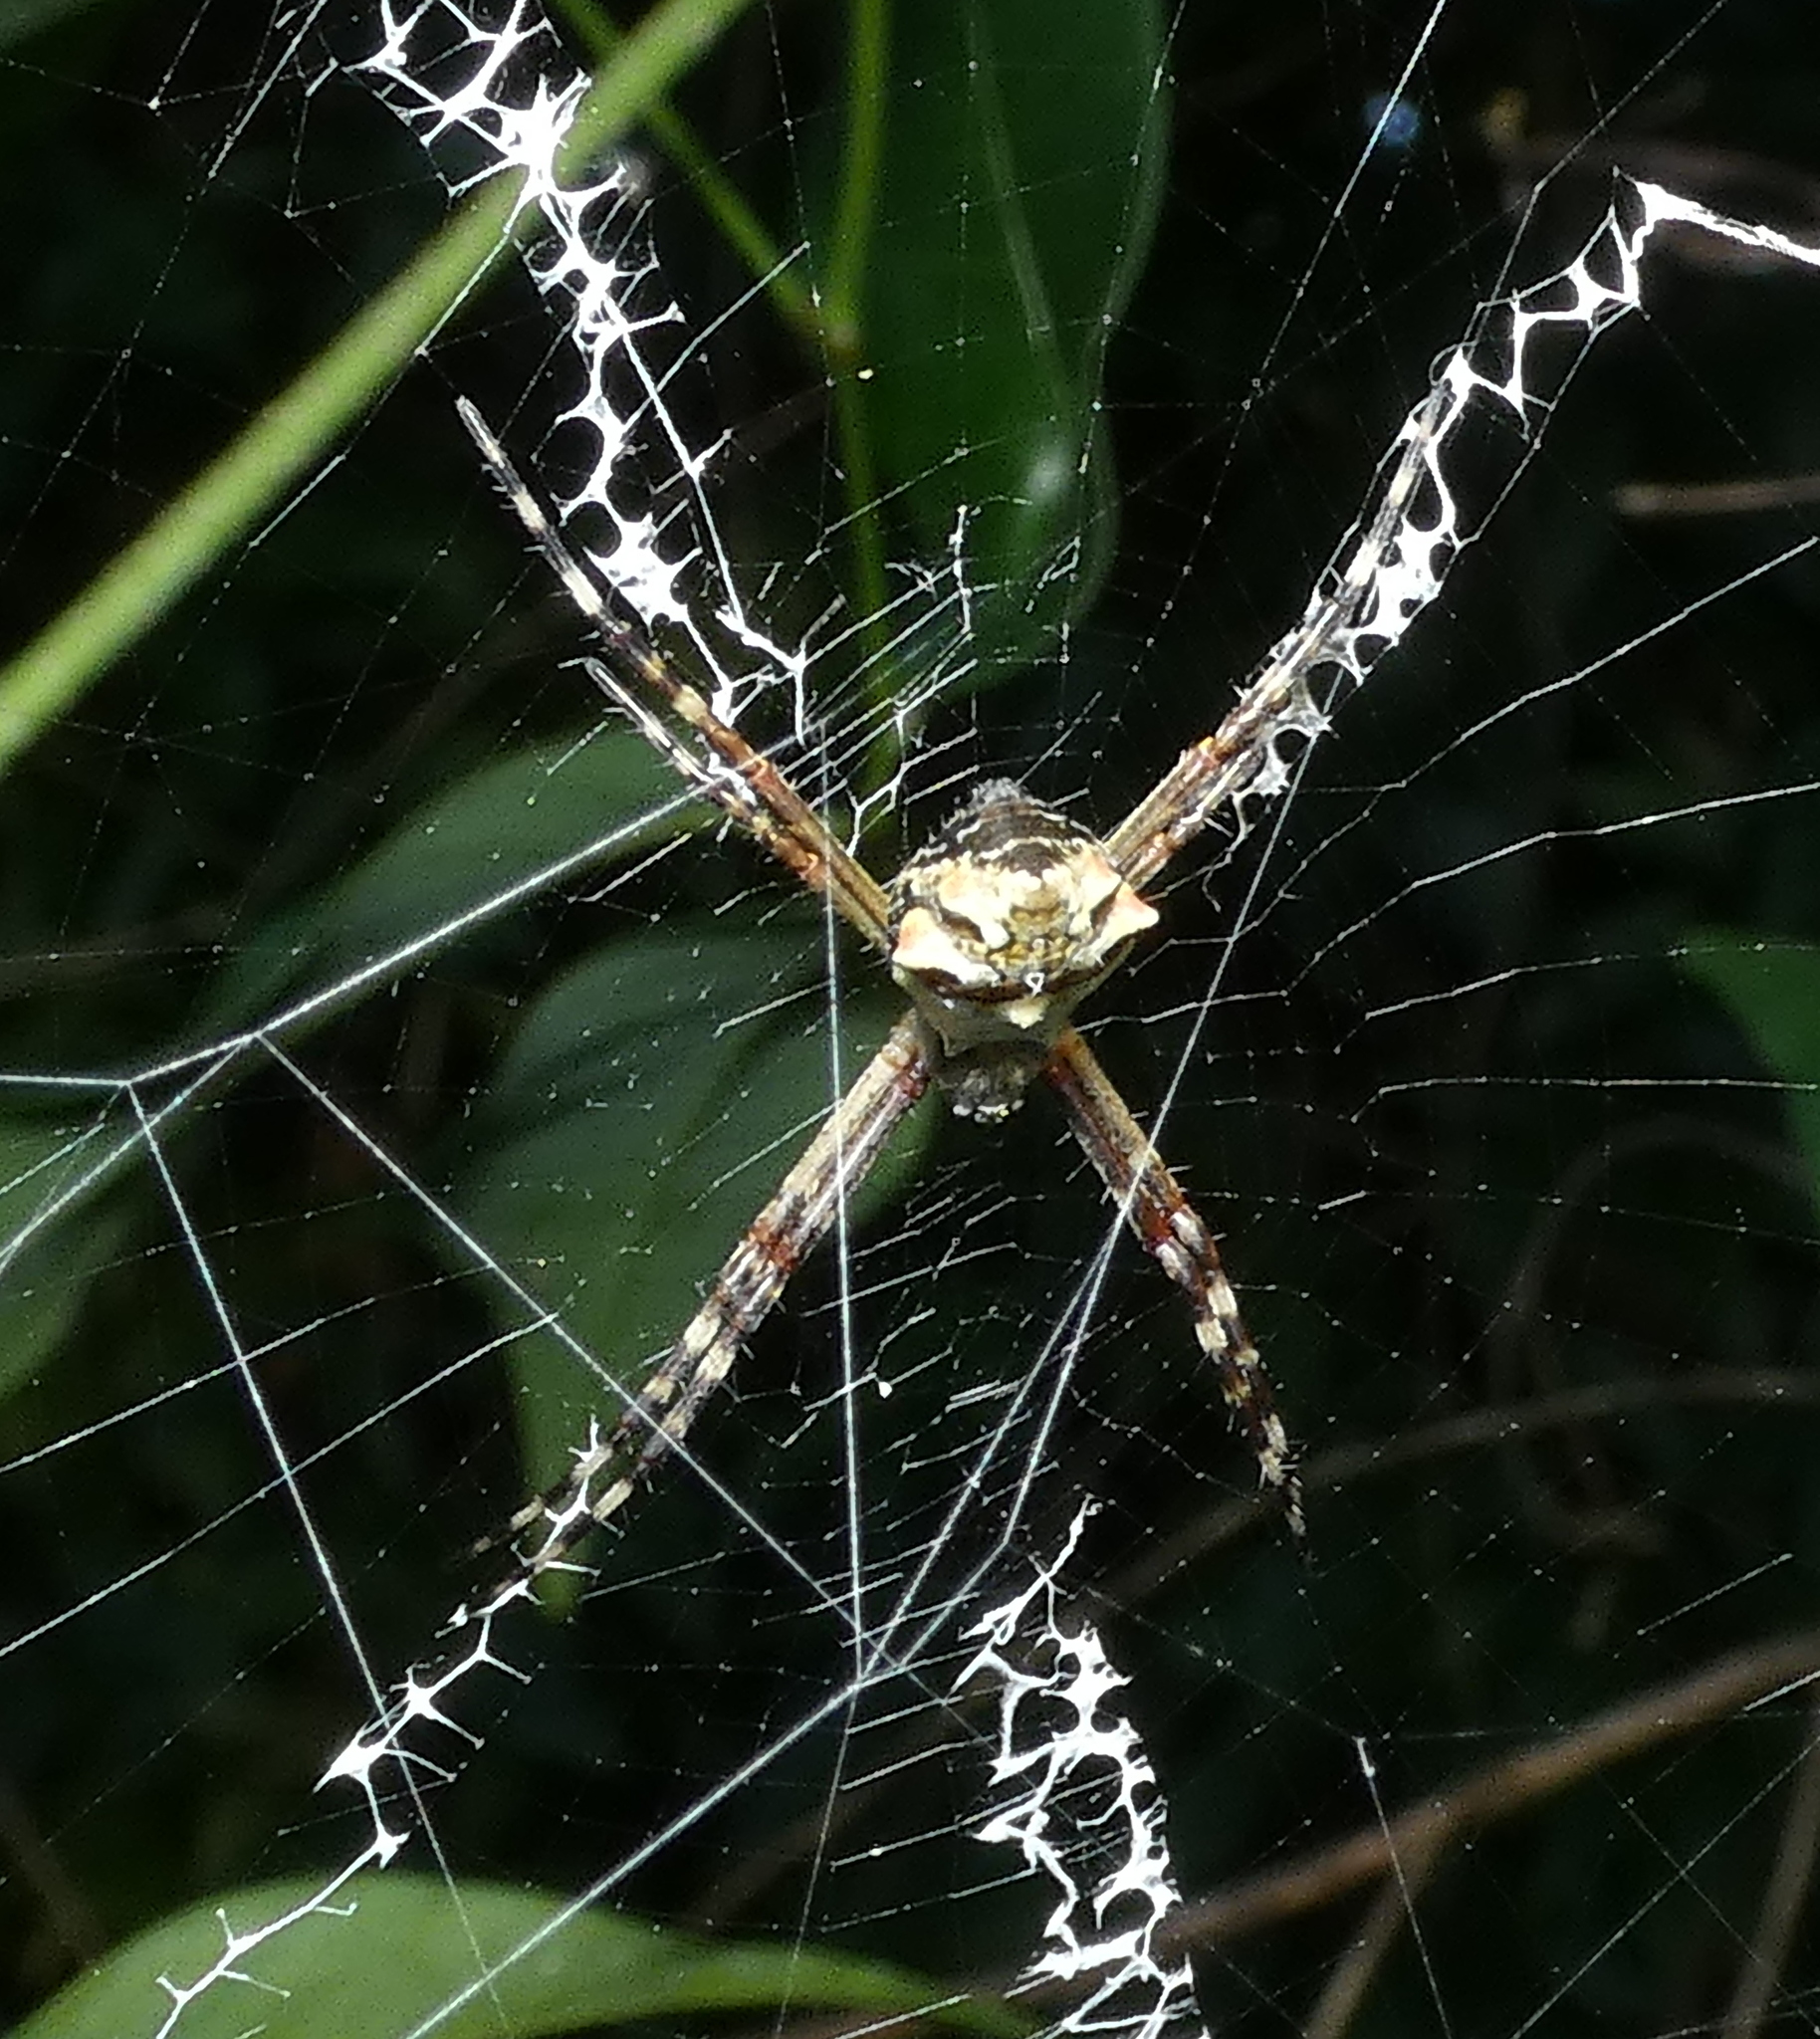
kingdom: Animalia
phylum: Arthropoda
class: Arachnida
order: Araneae
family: Araneidae
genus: Argiope
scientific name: Argiope argentata
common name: Orb weavers
